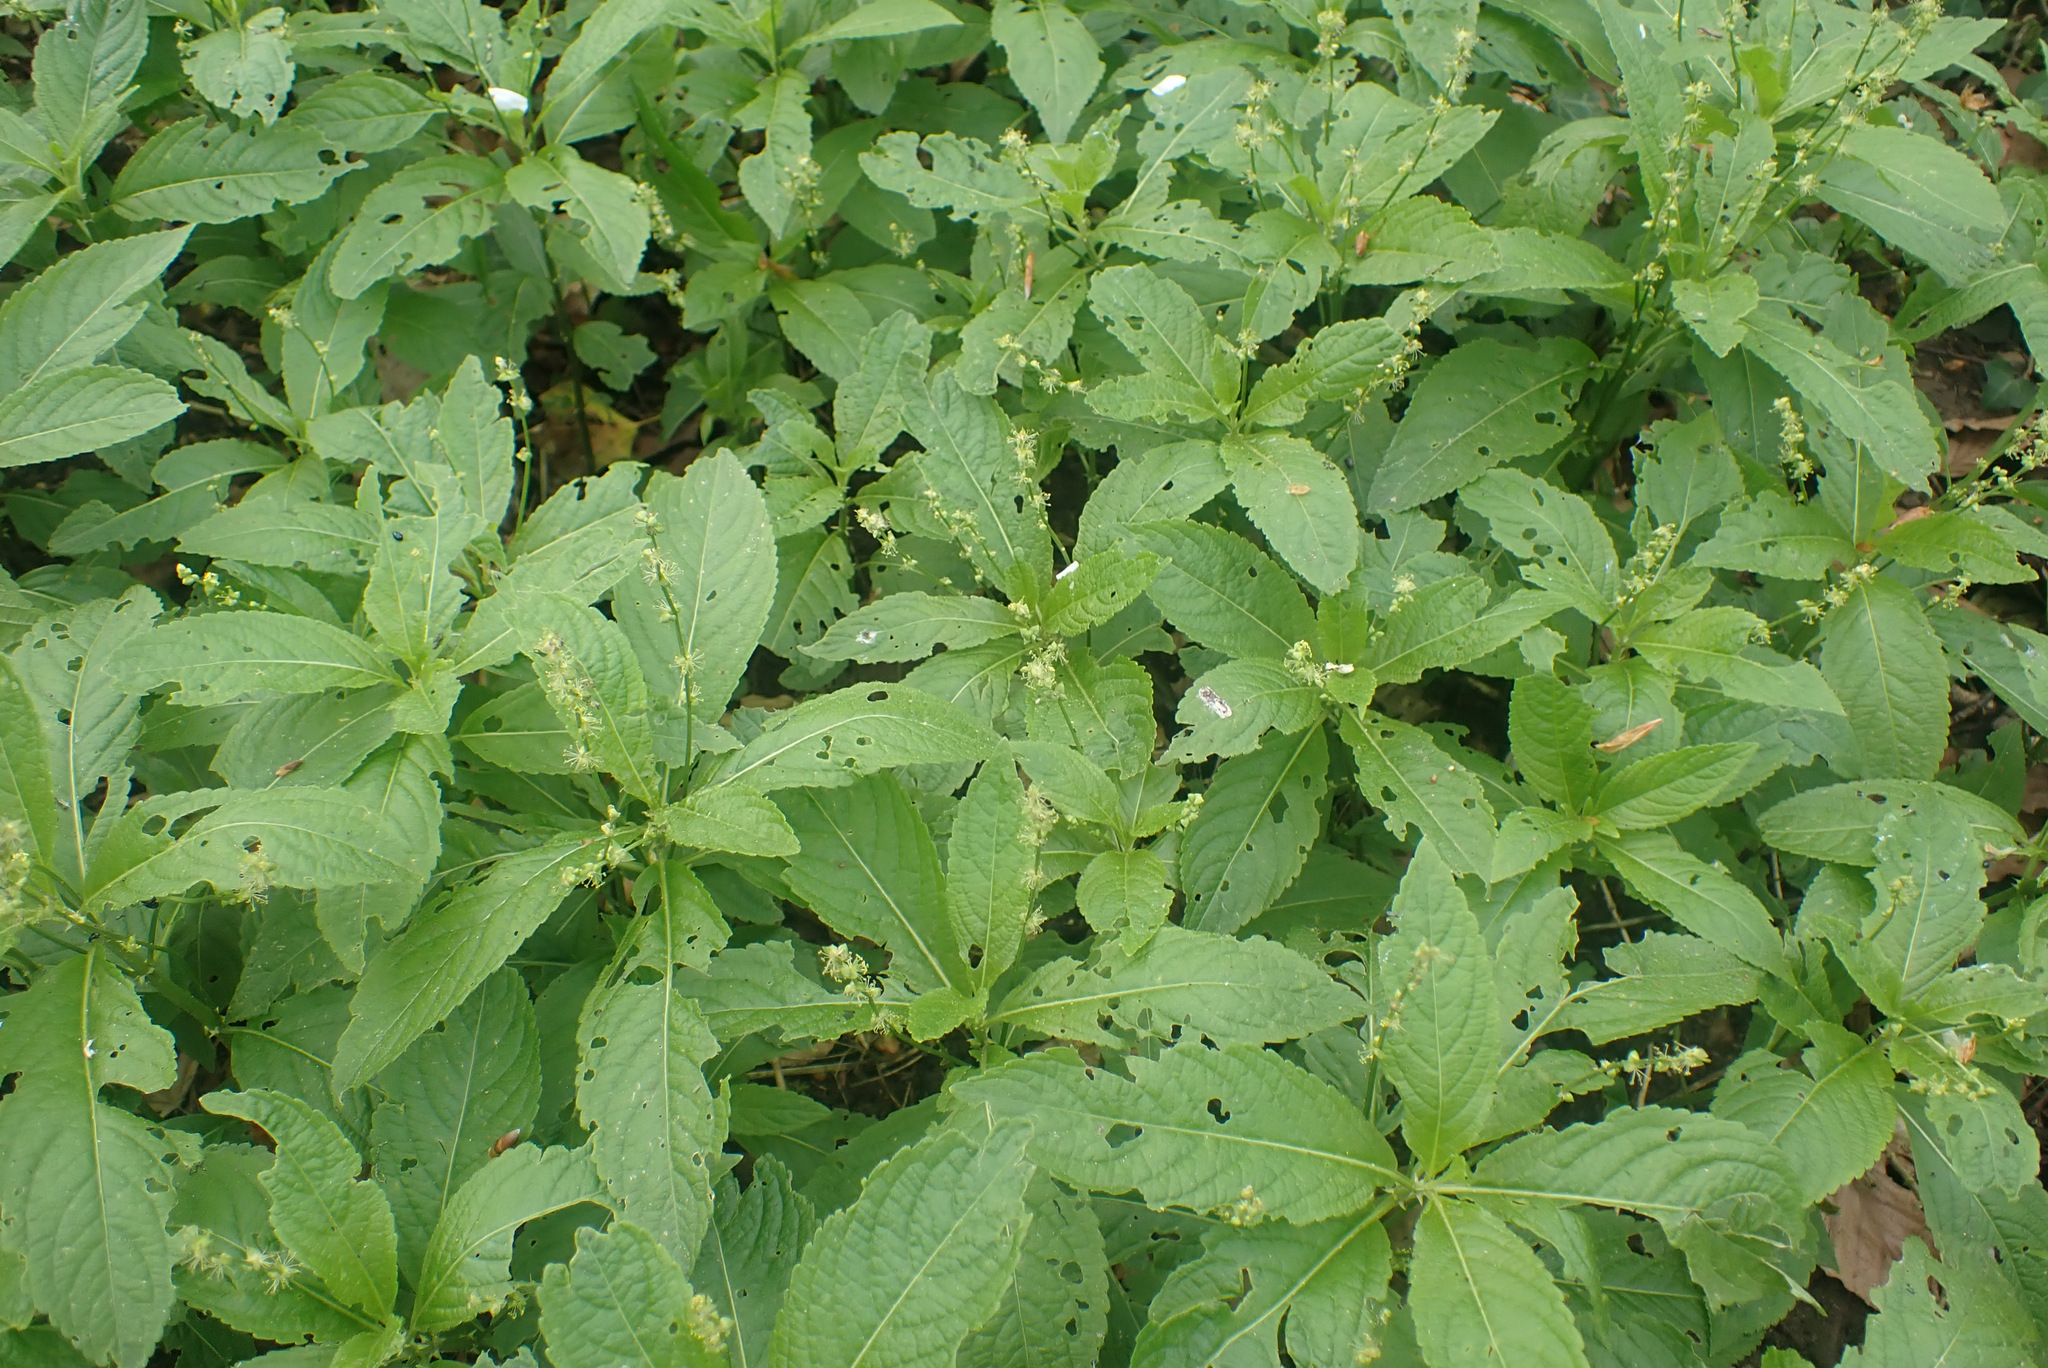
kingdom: Plantae
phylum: Tracheophyta
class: Magnoliopsida
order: Malpighiales
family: Euphorbiaceae
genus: Mercurialis
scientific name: Mercurialis perennis
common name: Dog mercury
